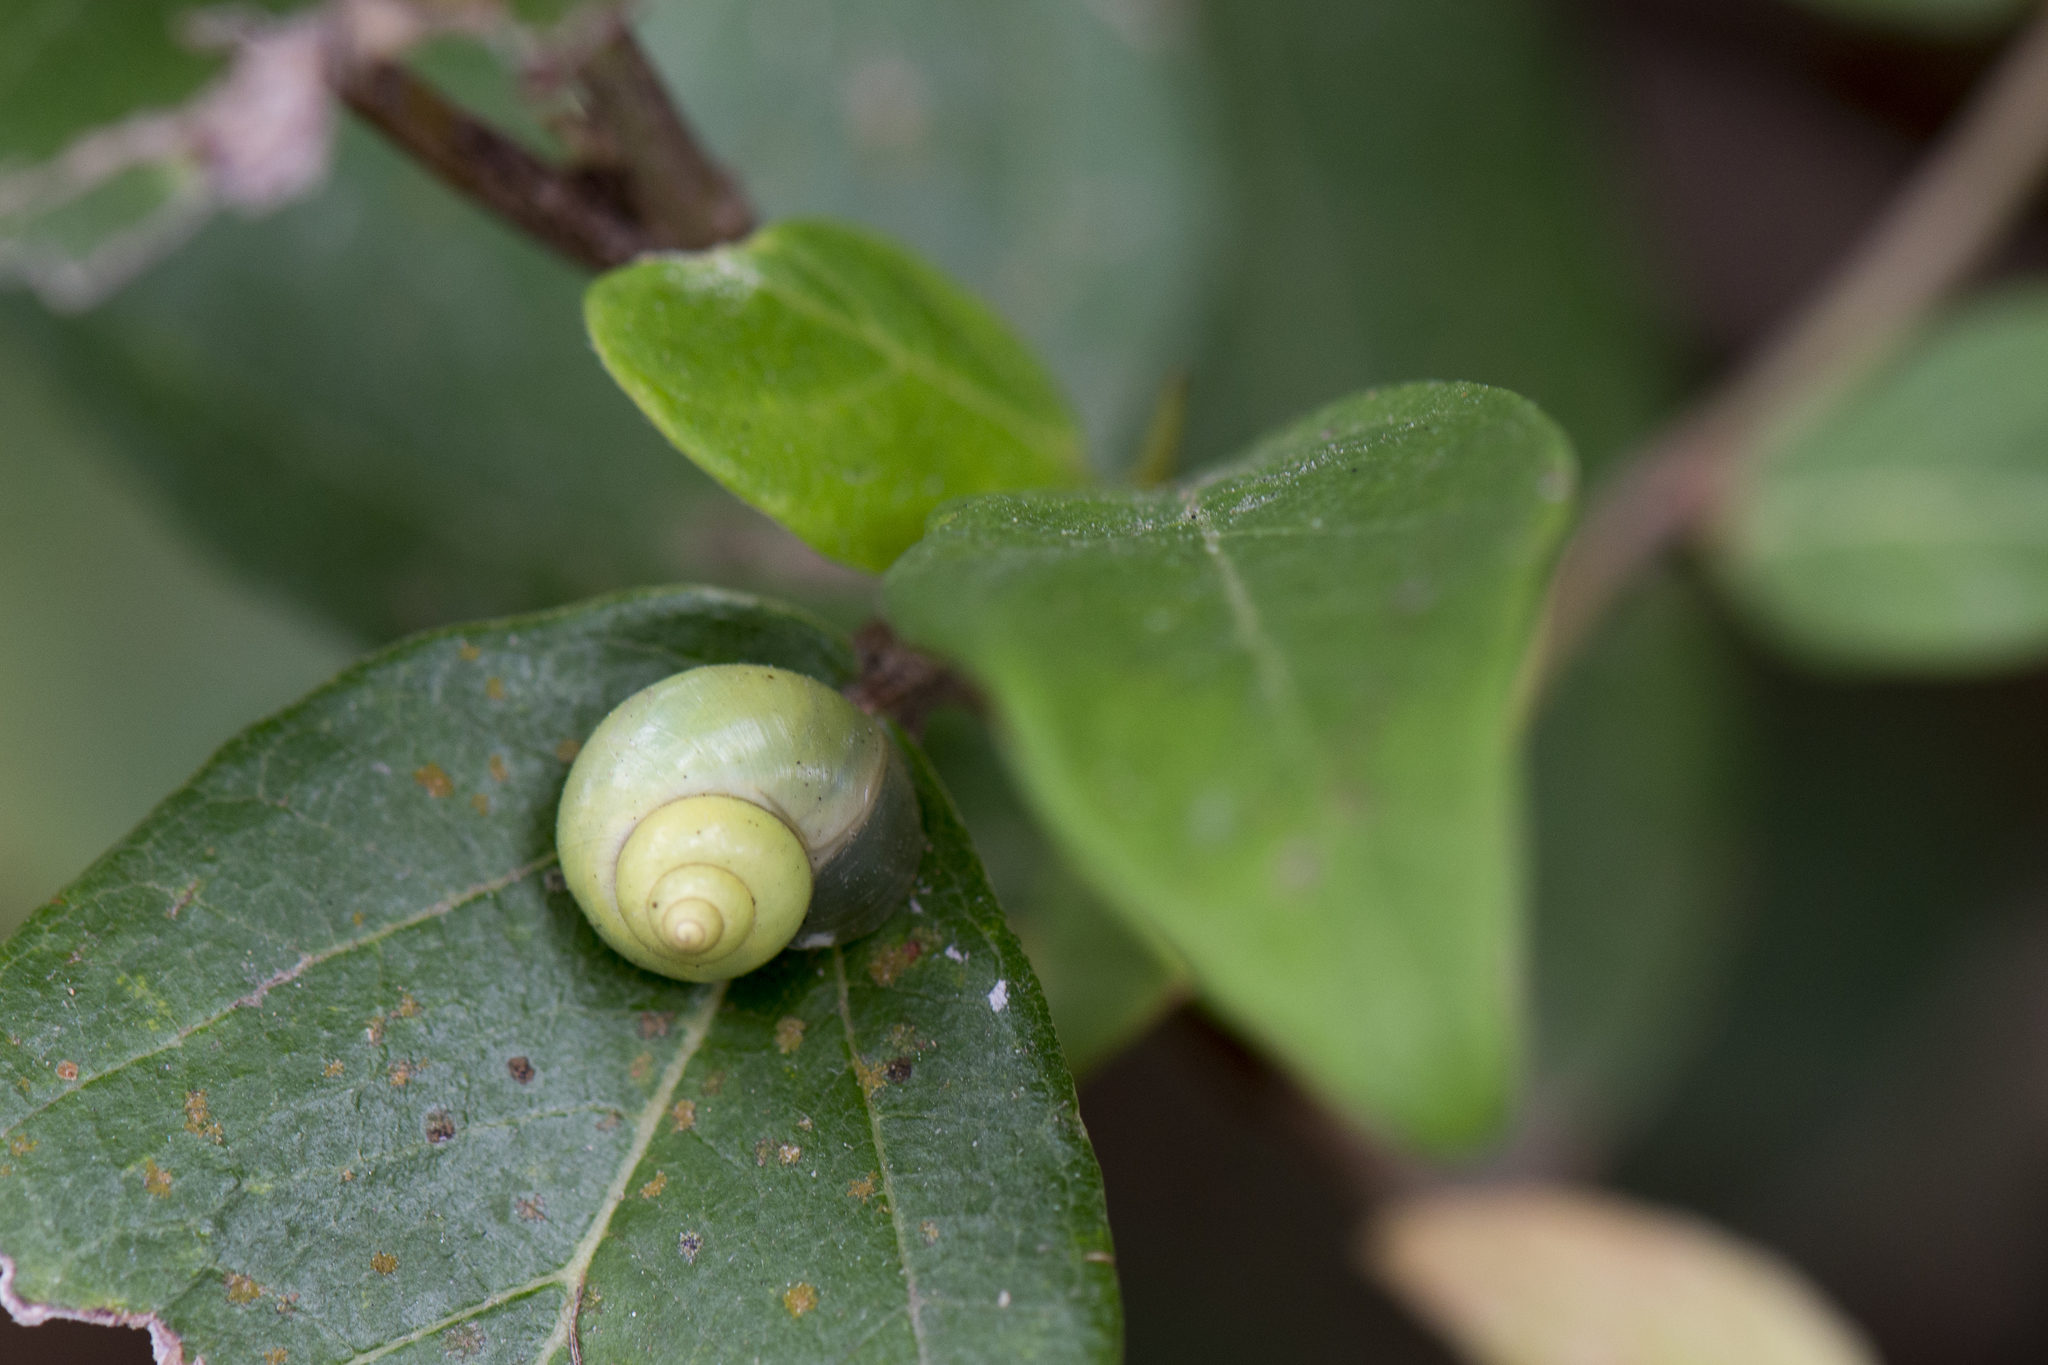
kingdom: Animalia
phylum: Mollusca
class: Gastropoda
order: Architaenioglossa
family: Cyclophoridae
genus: Leptopoma
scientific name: Leptopoma nitidum
